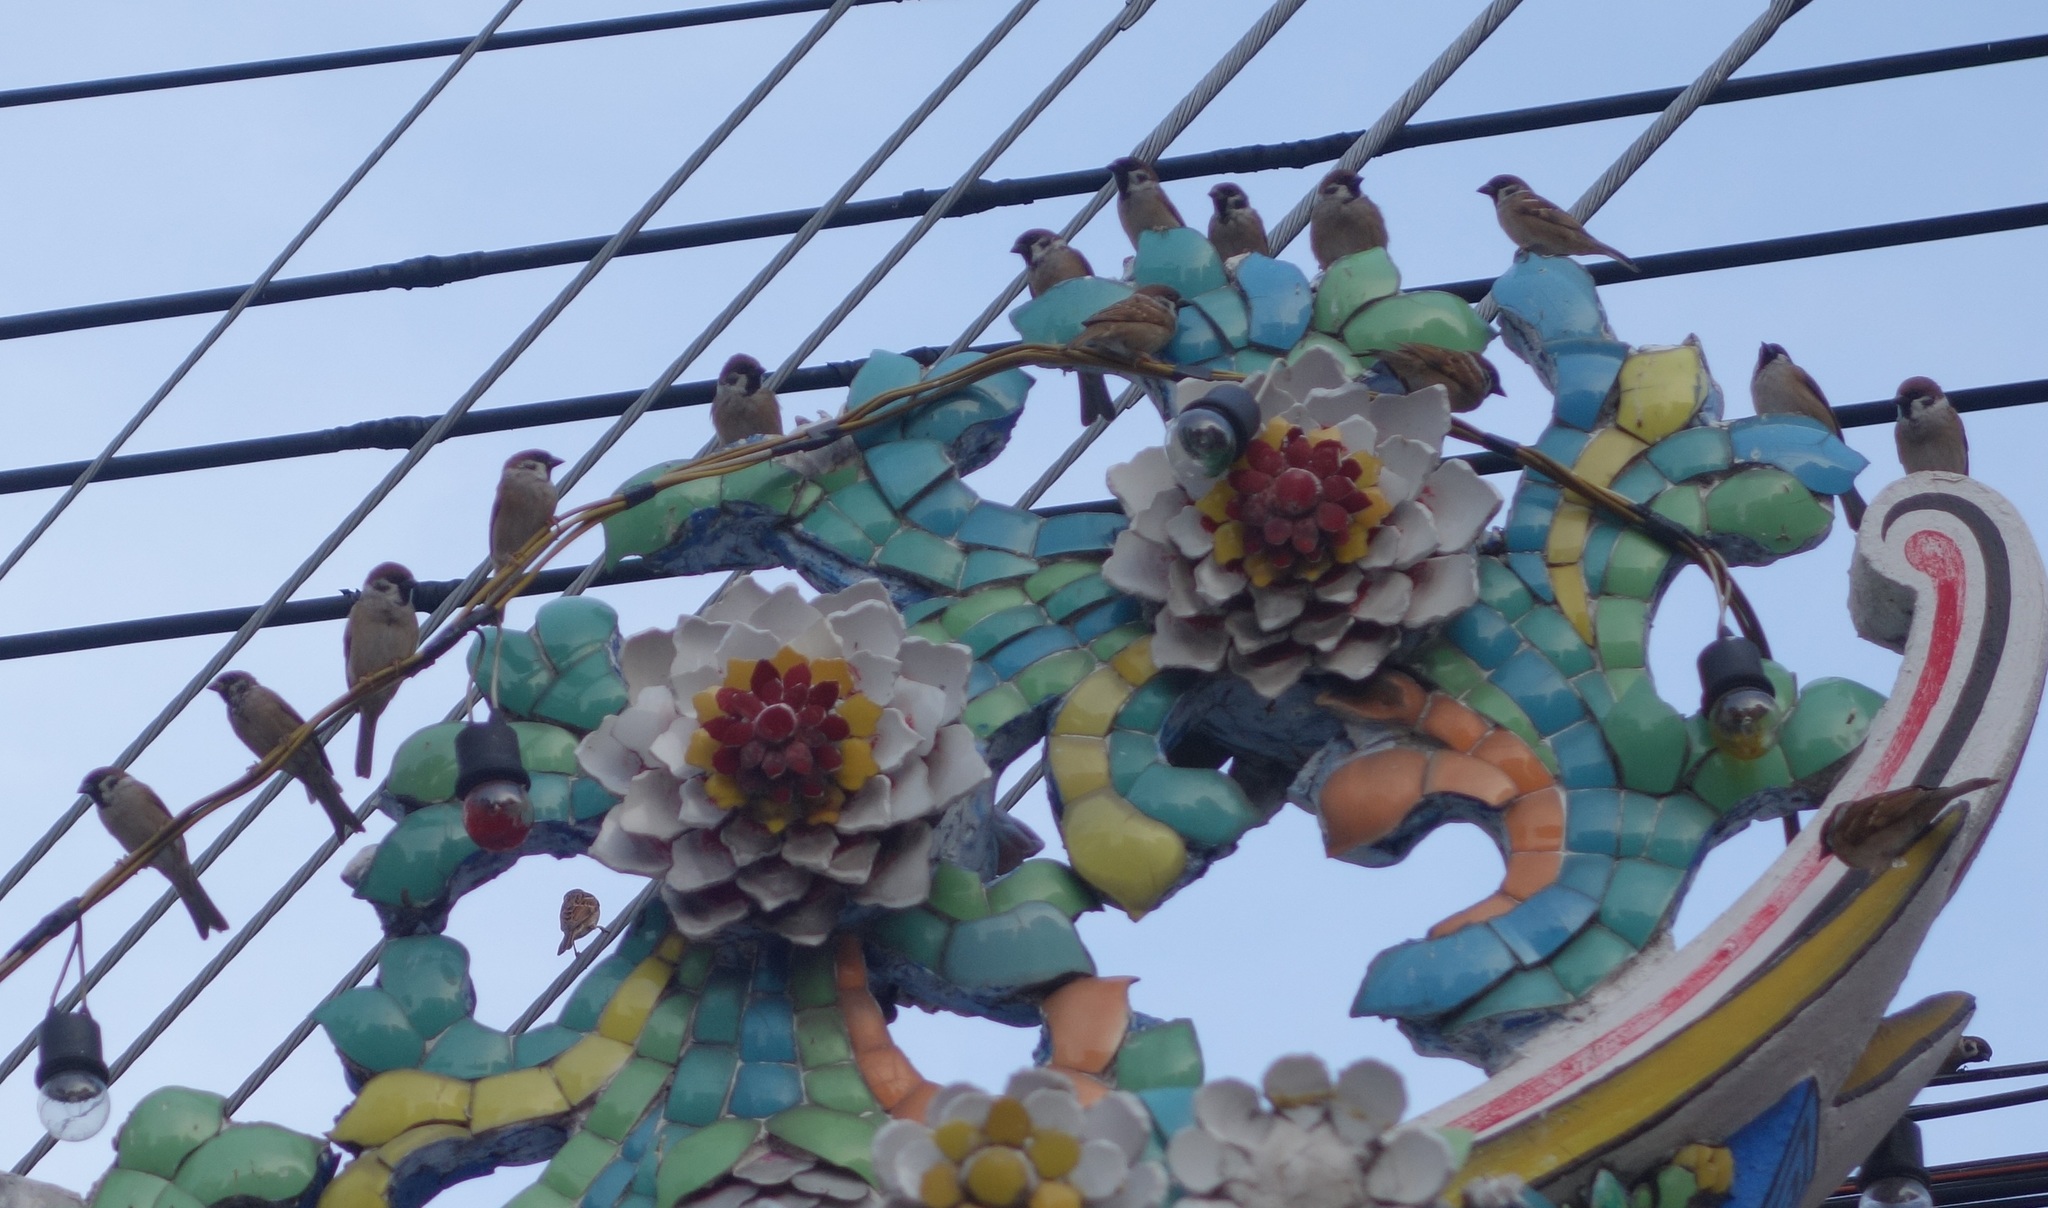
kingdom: Animalia
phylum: Chordata
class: Aves
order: Passeriformes
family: Passeridae
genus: Passer
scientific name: Passer montanus
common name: Eurasian tree sparrow
